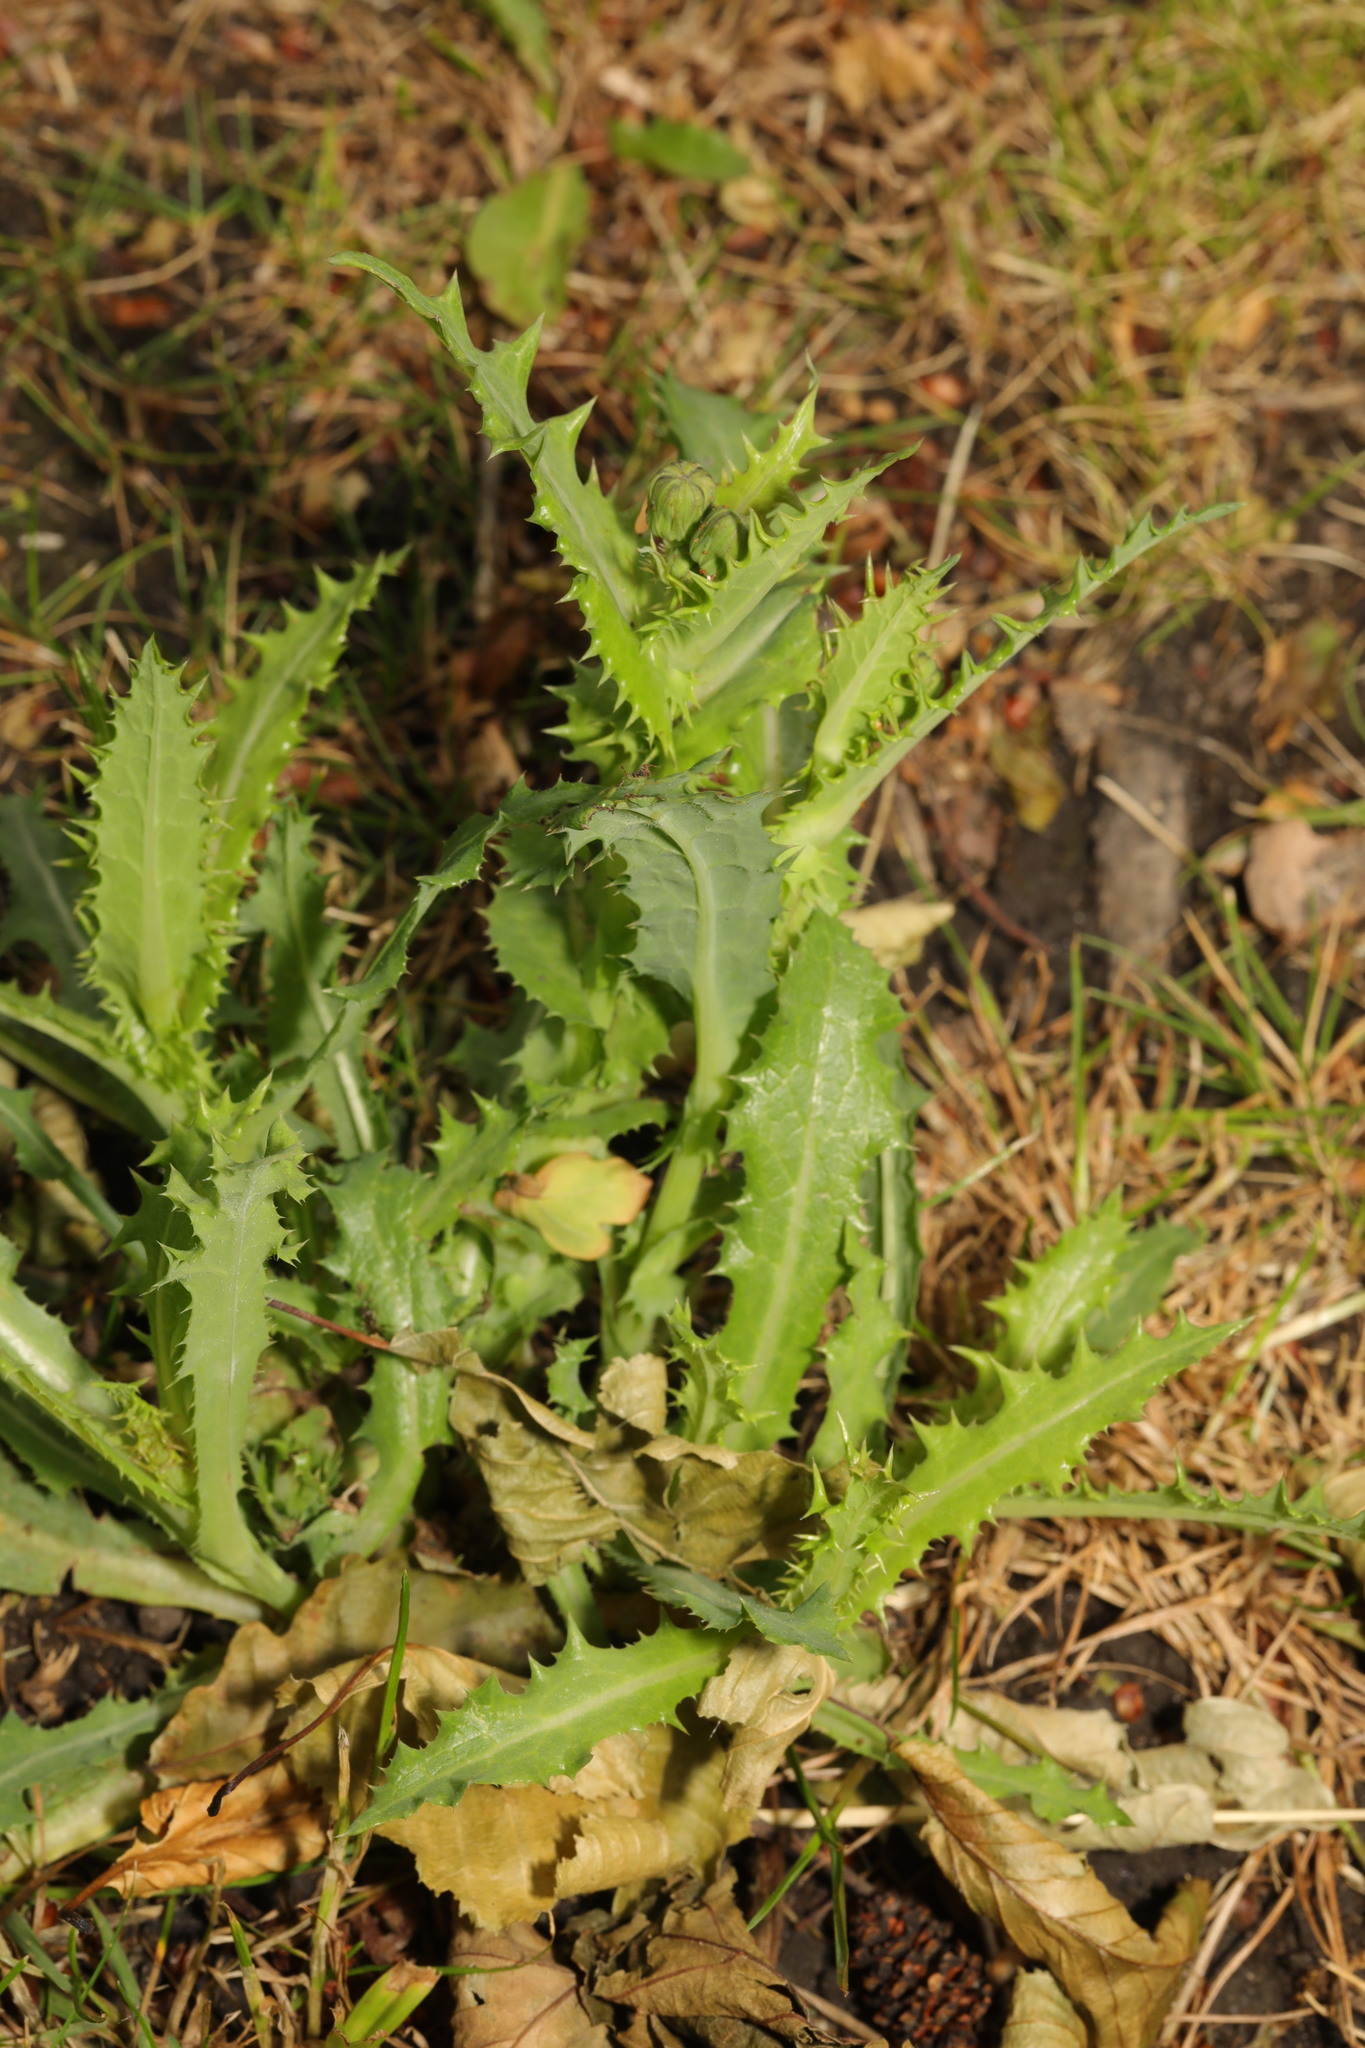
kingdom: Plantae
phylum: Tracheophyta
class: Magnoliopsida
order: Asterales
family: Asteraceae
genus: Sonchus
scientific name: Sonchus asper
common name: Prickly sow-thistle
